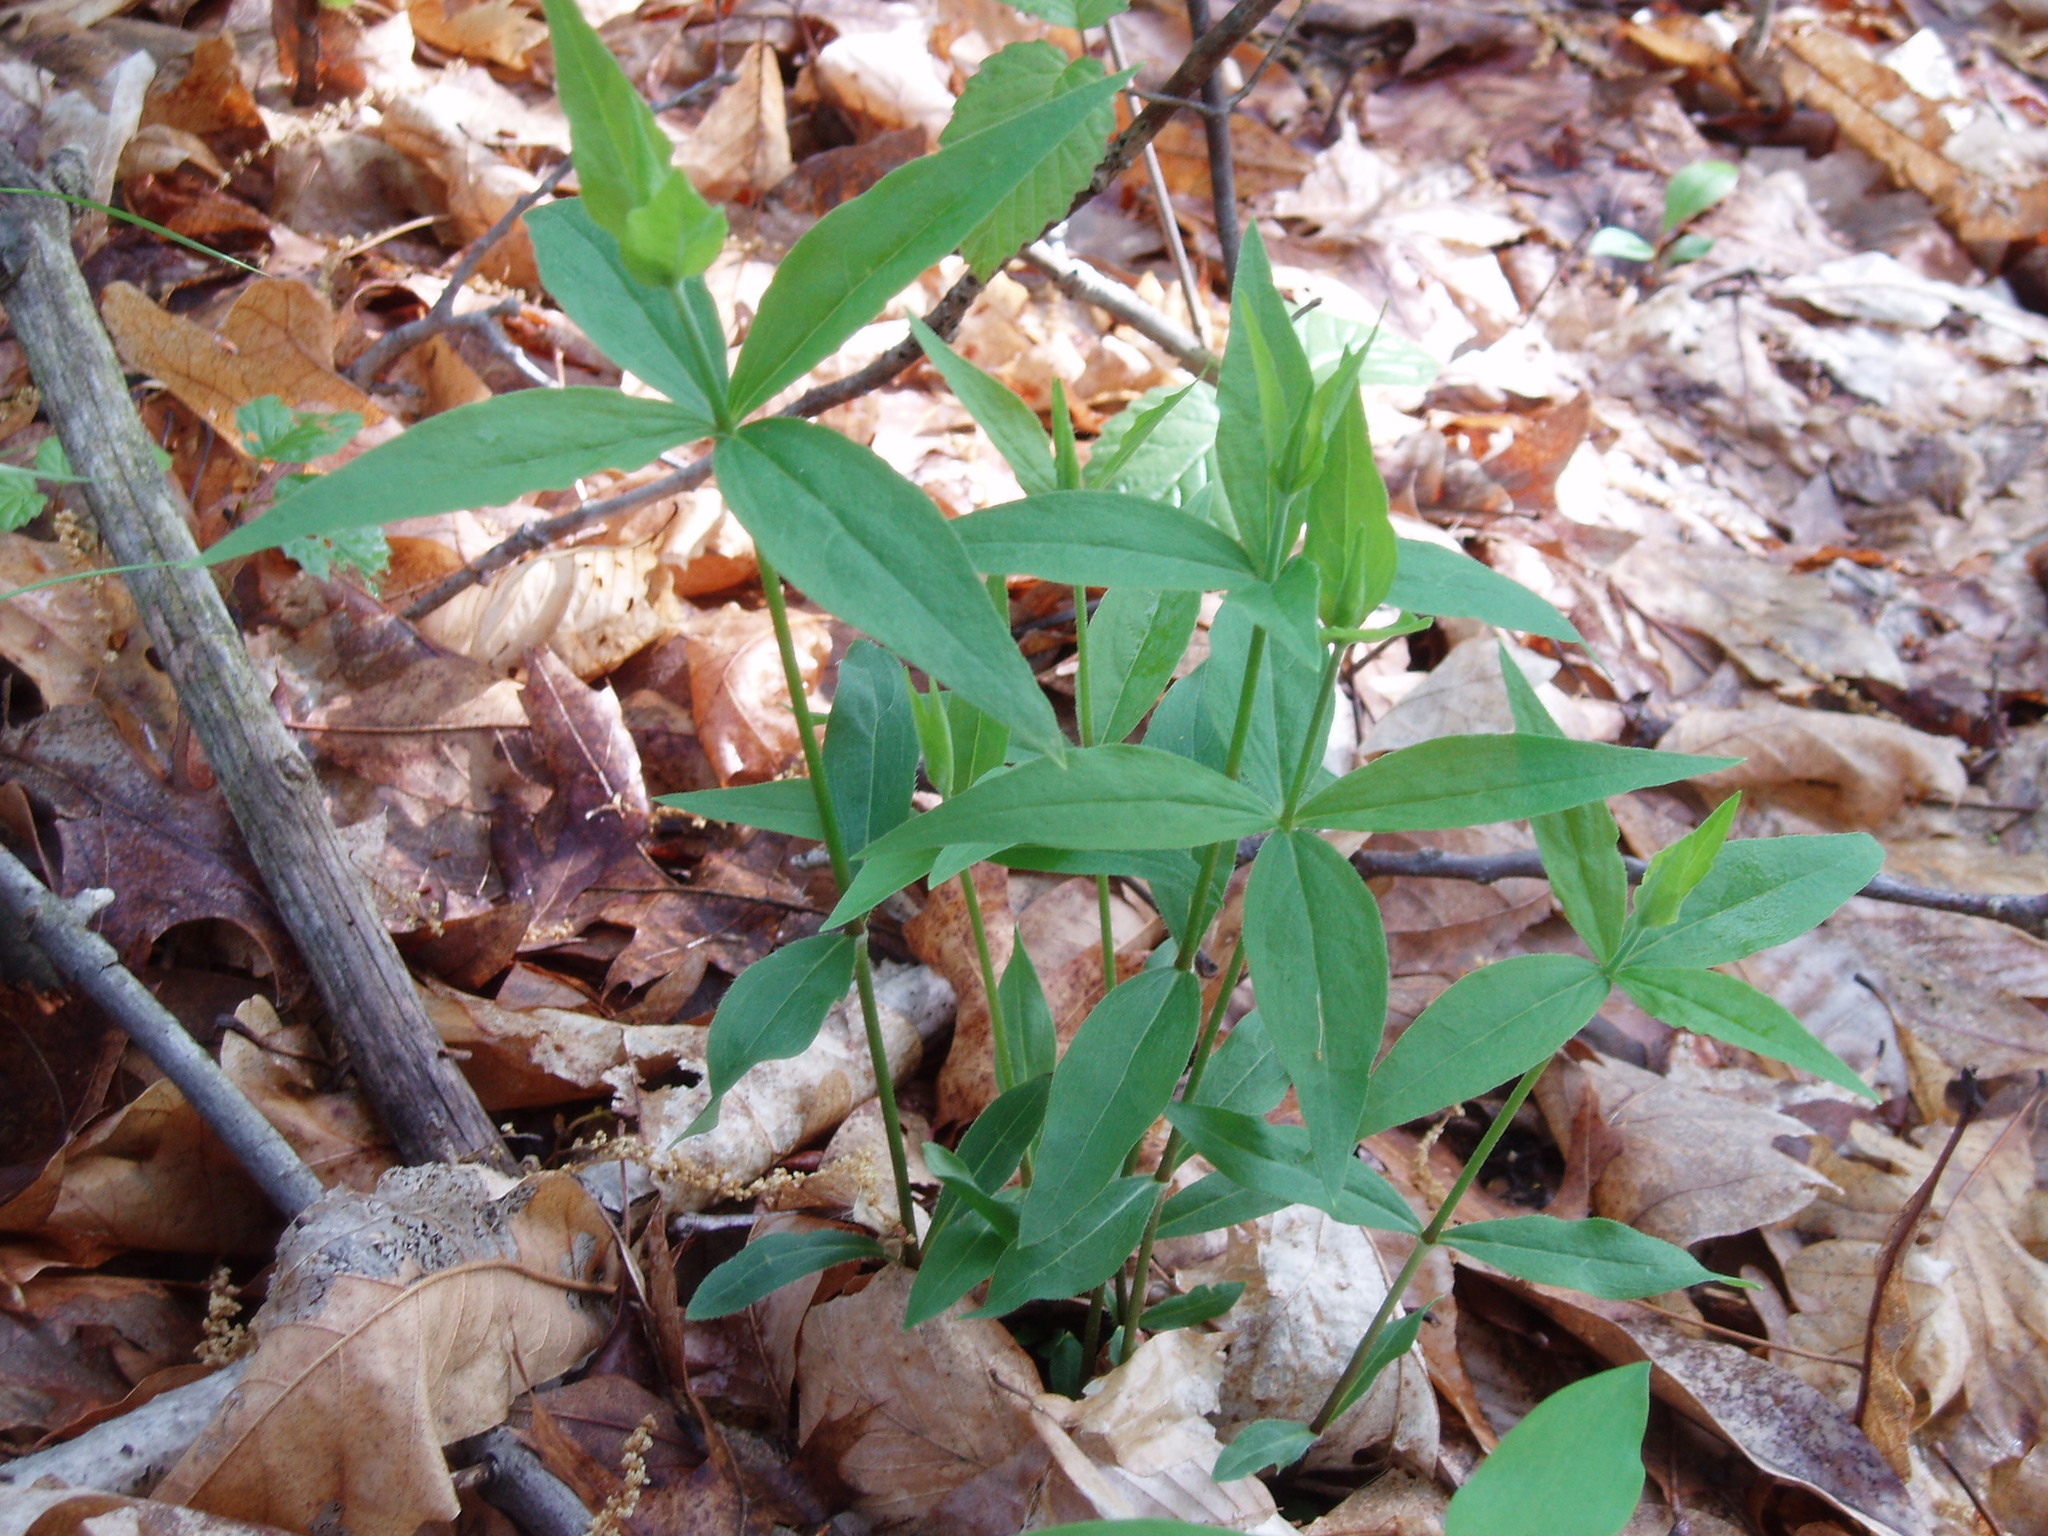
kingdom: Plantae
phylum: Tracheophyta
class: Magnoliopsida
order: Caryophyllales
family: Caryophyllaceae
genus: Silene
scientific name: Silene stellata
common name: Starry campion
